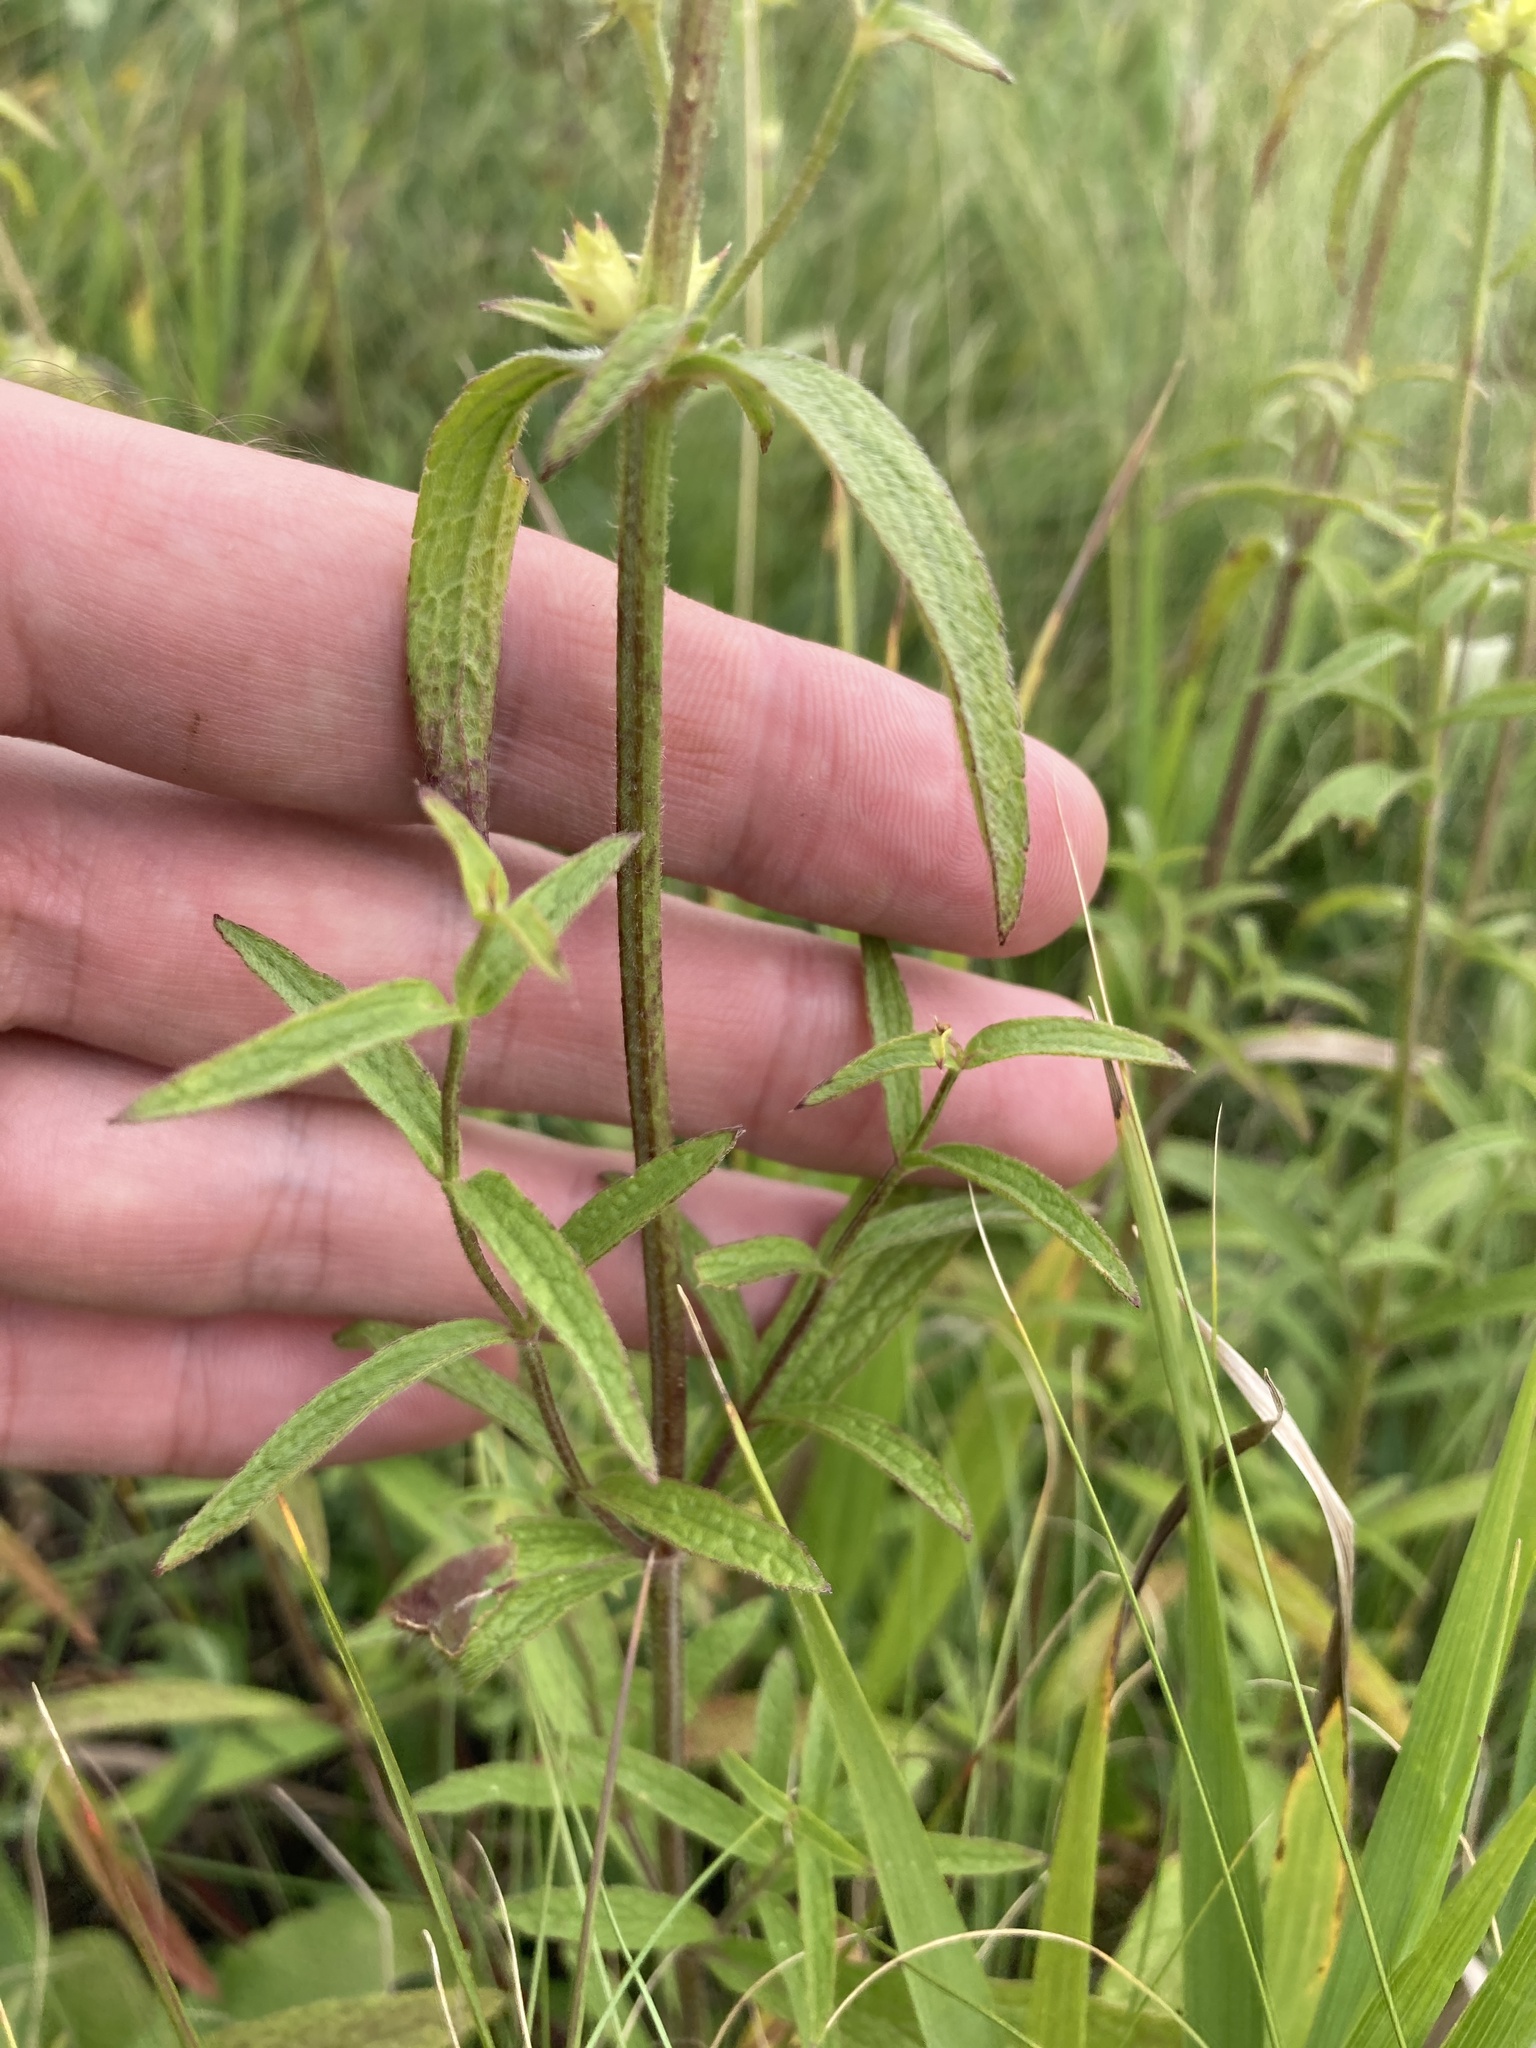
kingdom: Plantae
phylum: Tracheophyta
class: Magnoliopsida
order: Lamiales
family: Lamiaceae
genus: Stachys
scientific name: Stachys recta
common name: Perennial yellow-woundwort
